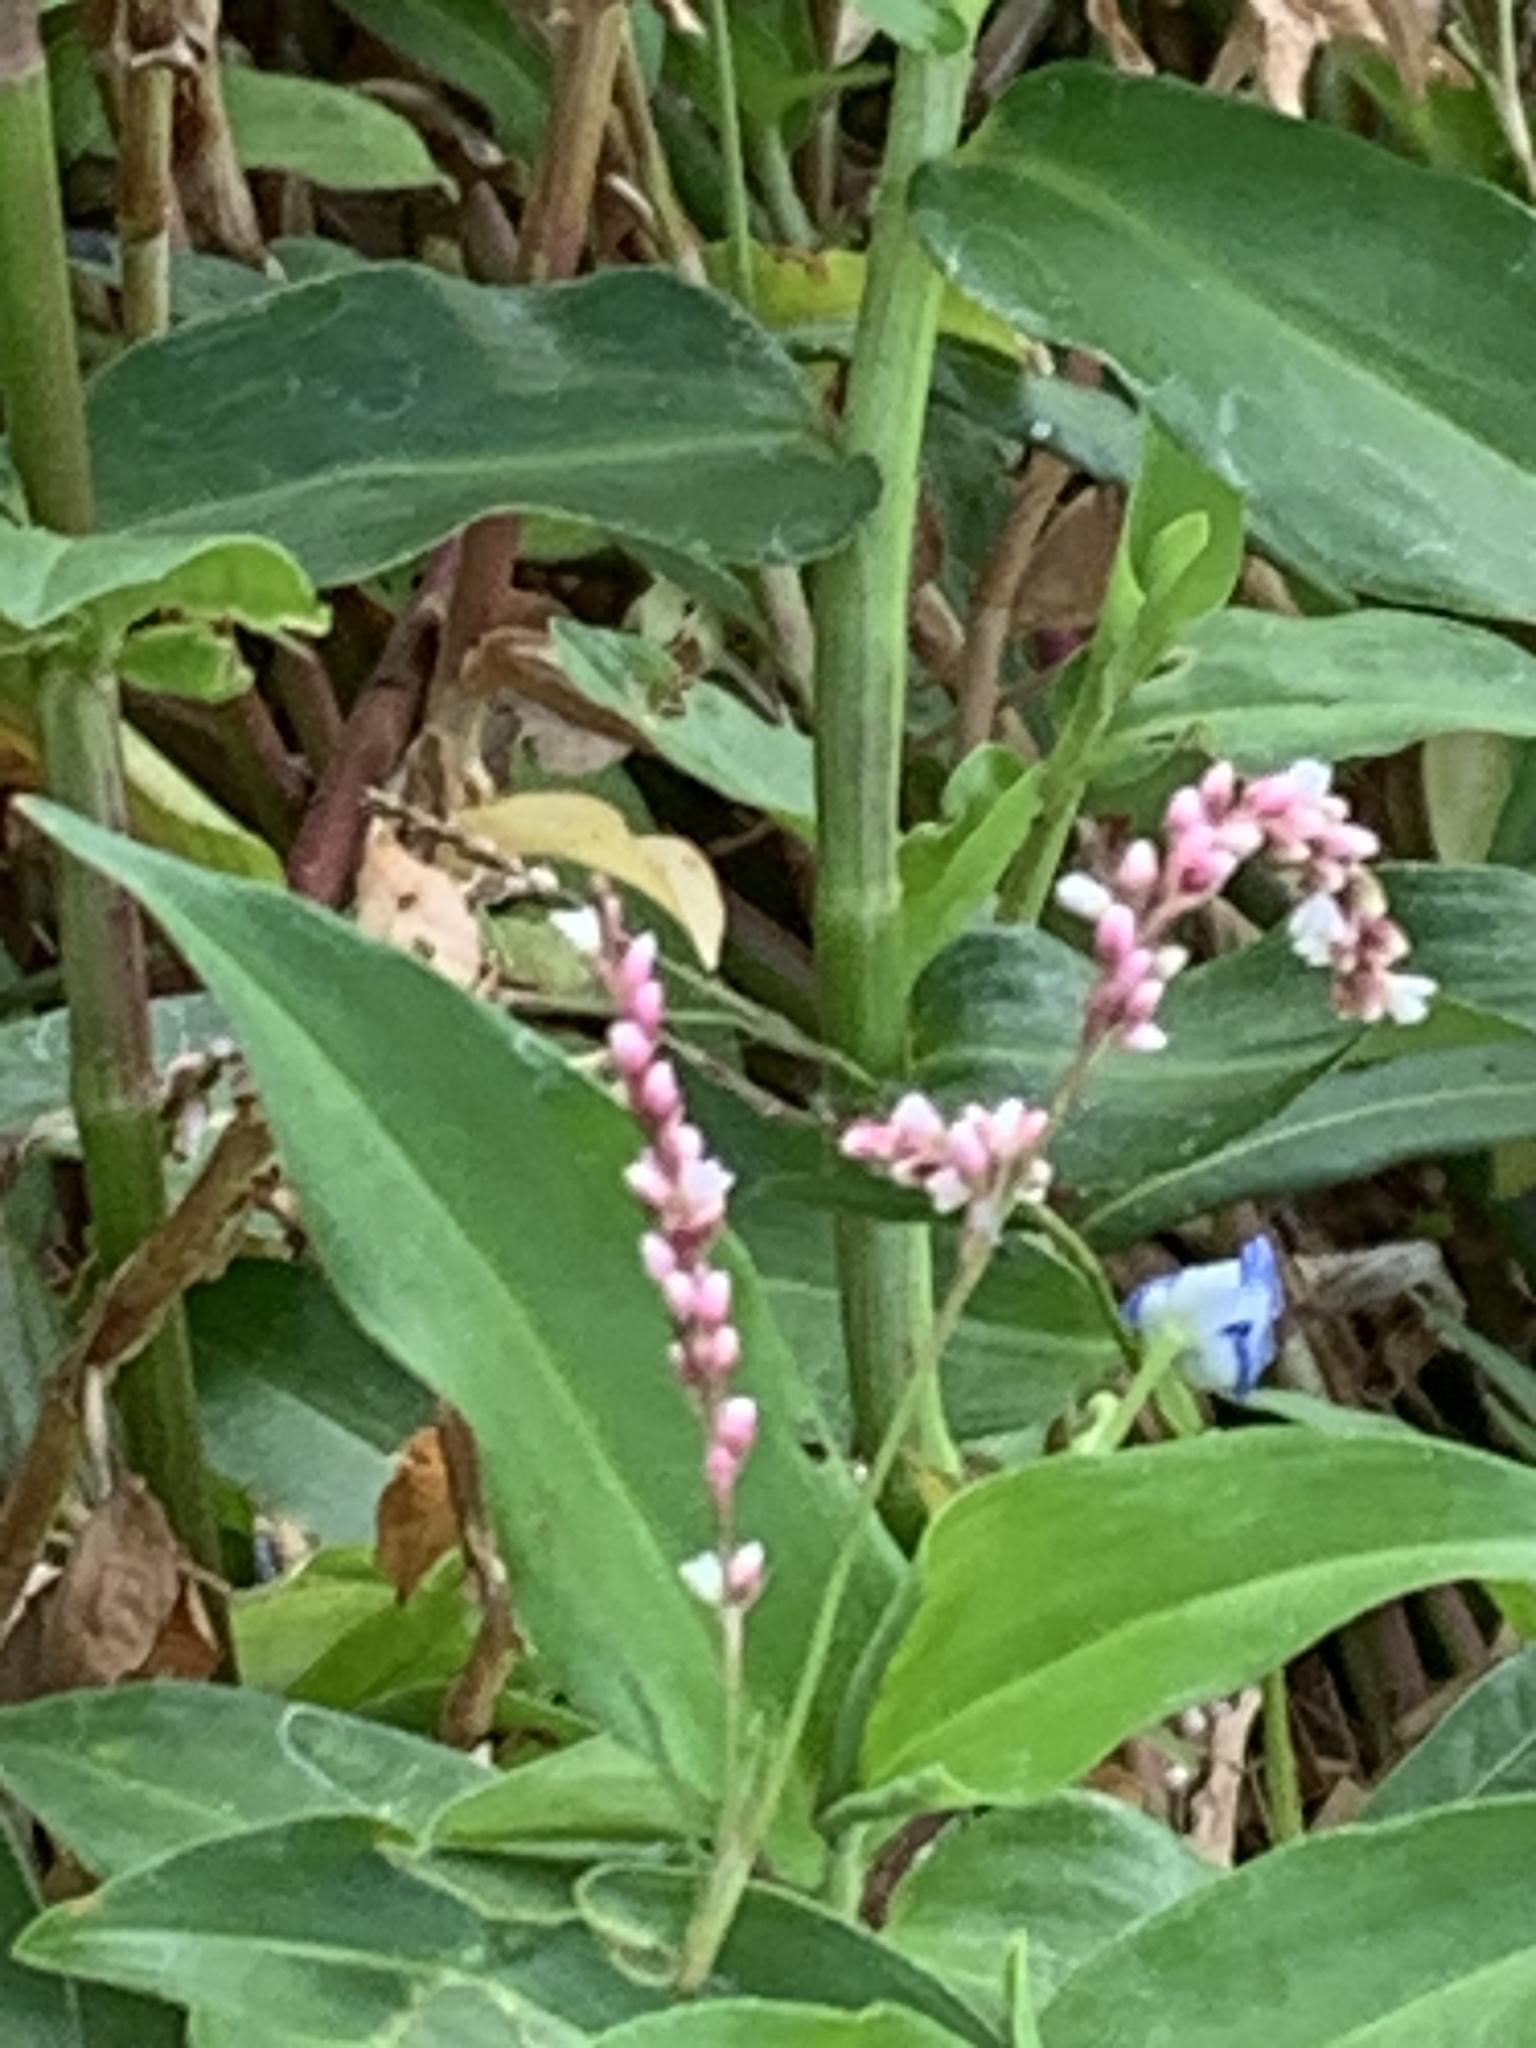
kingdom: Plantae
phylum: Tracheophyta
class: Magnoliopsida
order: Caryophyllales
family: Polygonaceae
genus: Persicaria
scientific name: Persicaria decipiens
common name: Willow-weed
